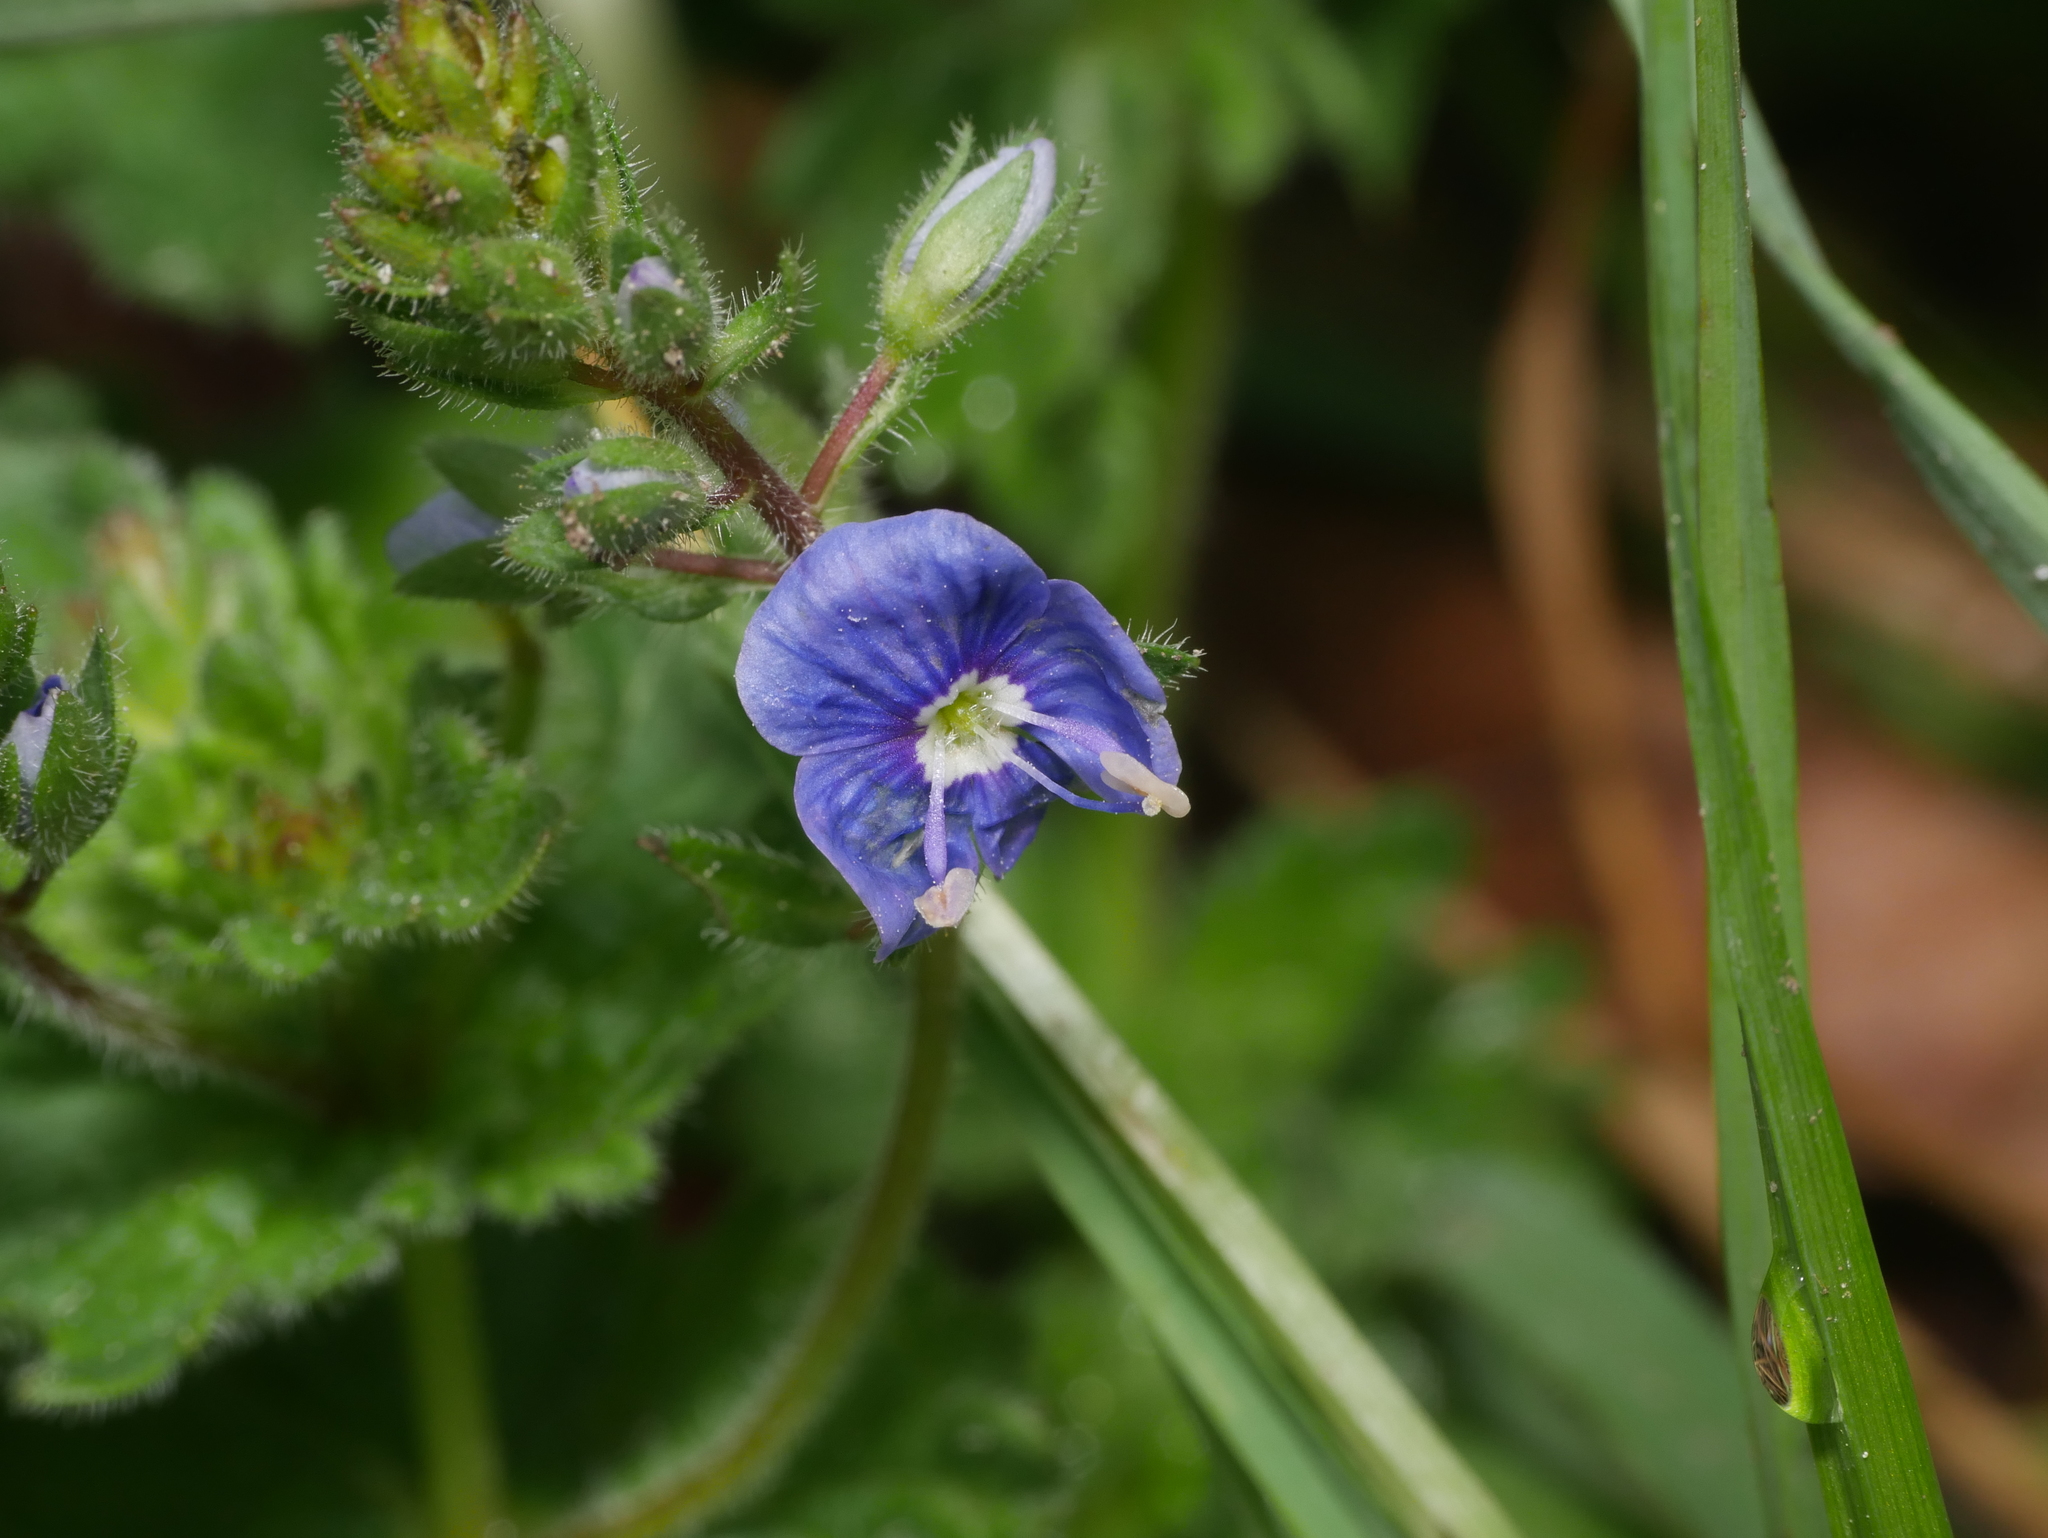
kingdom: Plantae
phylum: Tracheophyta
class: Magnoliopsida
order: Lamiales
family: Plantaginaceae
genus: Veronica
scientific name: Veronica chamaedrys
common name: Germander speedwell
